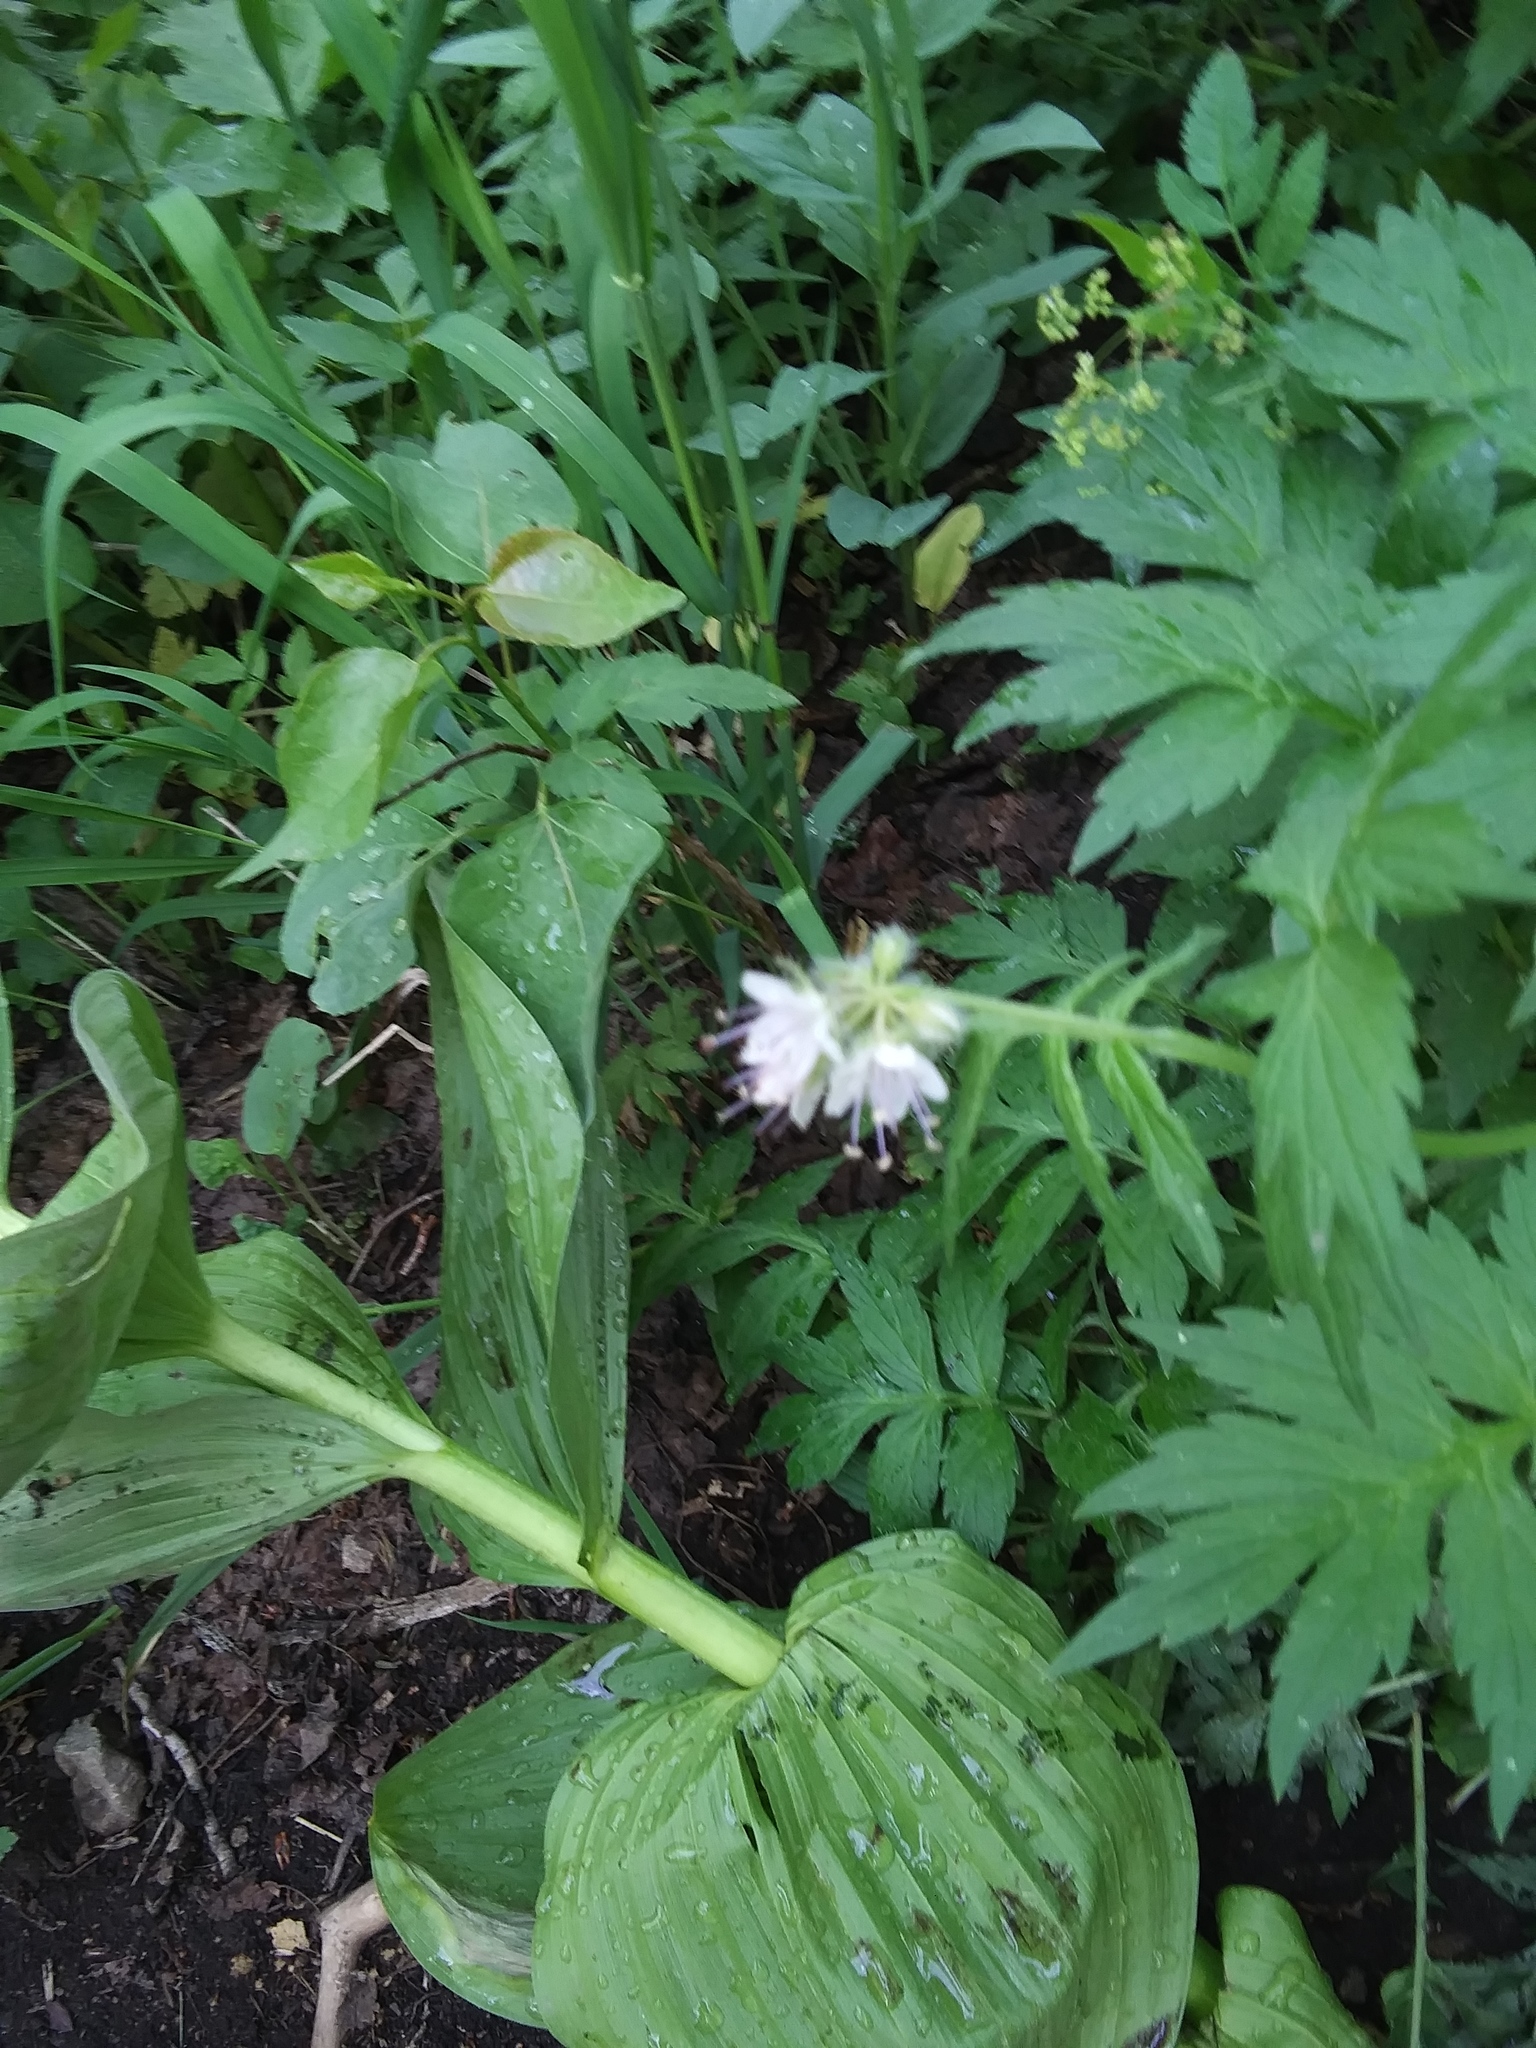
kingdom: Plantae
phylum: Tracheophyta
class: Magnoliopsida
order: Boraginales
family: Hydrophyllaceae
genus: Hydrophyllum
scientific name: Hydrophyllum fendleri
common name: Fendler's waterleaf
